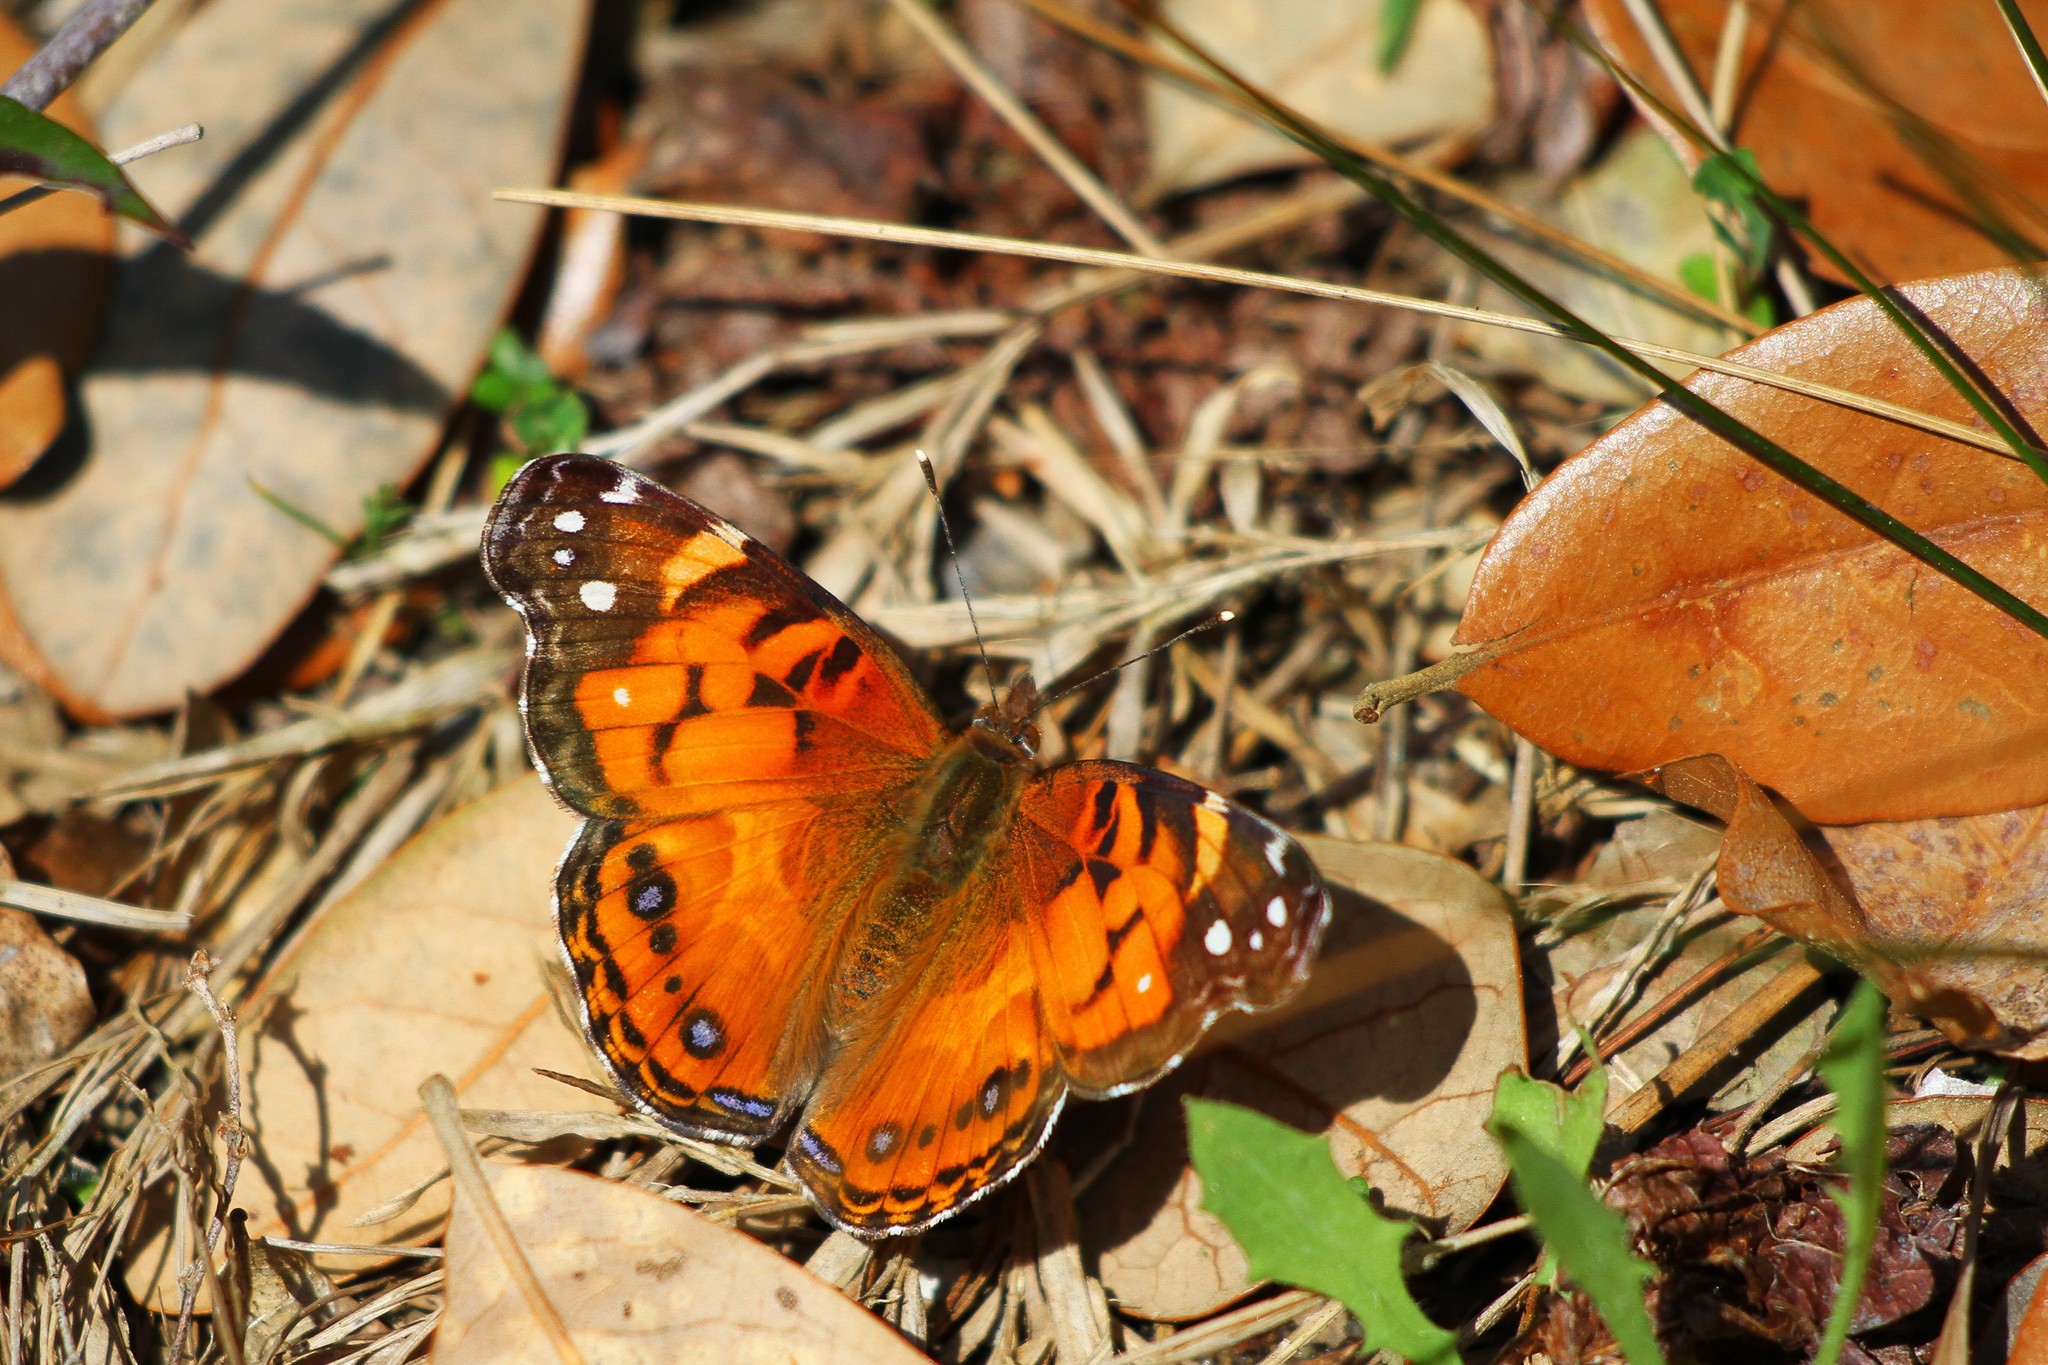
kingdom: Animalia
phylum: Arthropoda
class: Insecta
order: Lepidoptera
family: Nymphalidae
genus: Vanessa
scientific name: Vanessa virginiensis
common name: American lady
